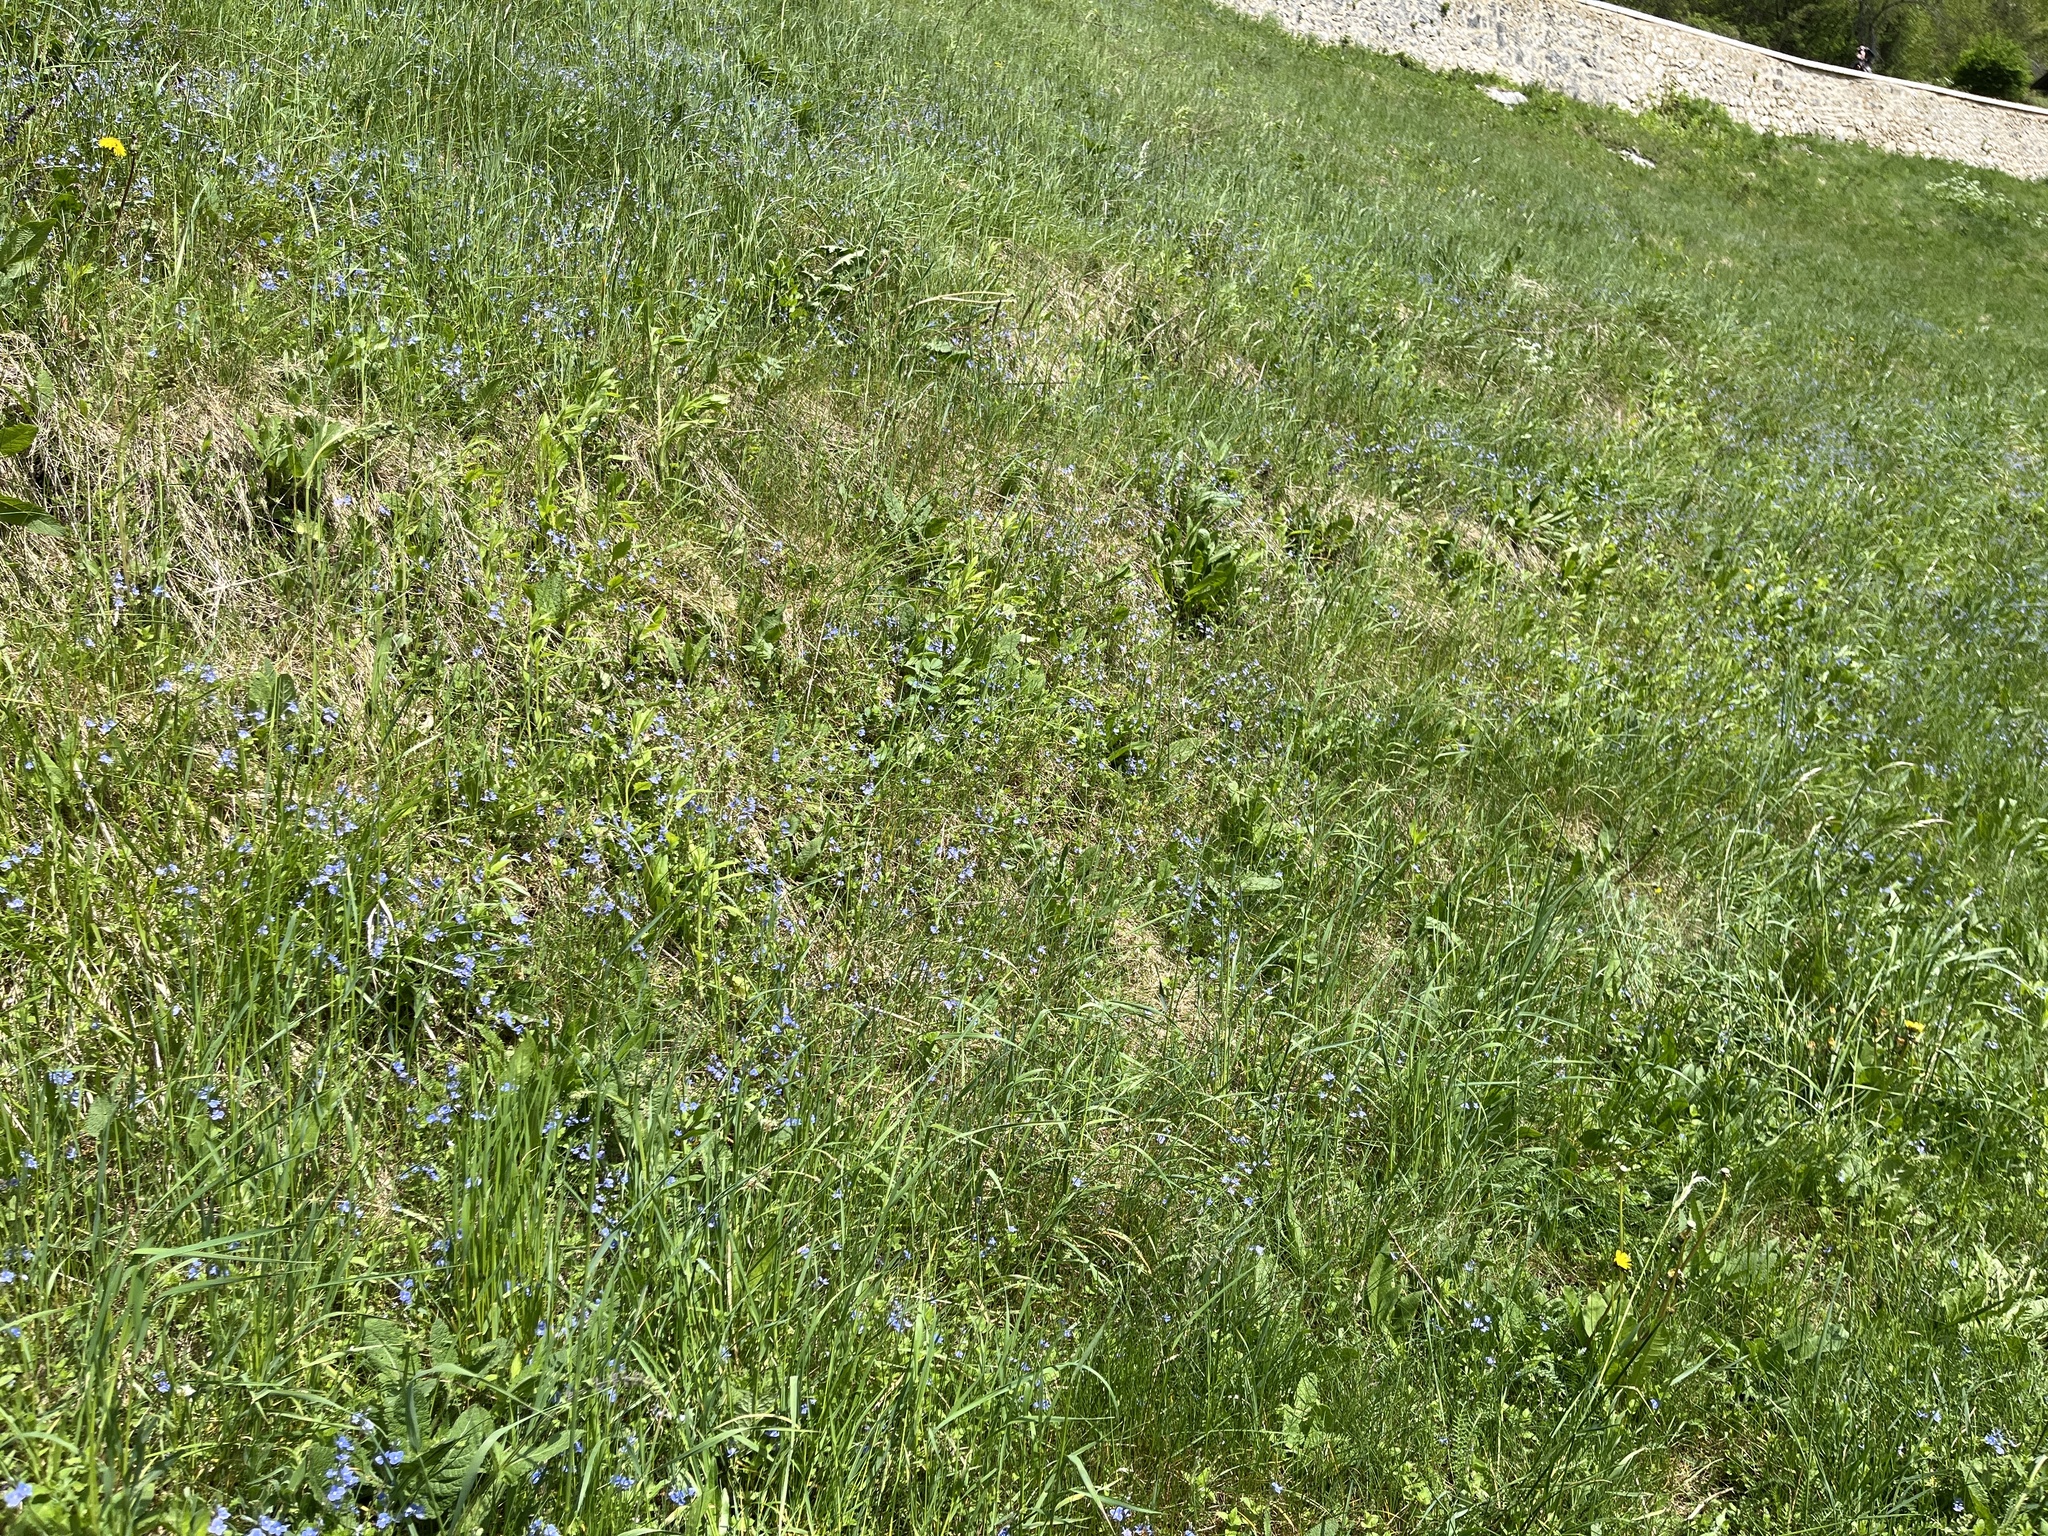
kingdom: Plantae
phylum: Tracheophyta
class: Magnoliopsida
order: Lamiales
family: Plantaginaceae
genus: Veronica
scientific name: Veronica chamaedrys
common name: Germander speedwell
